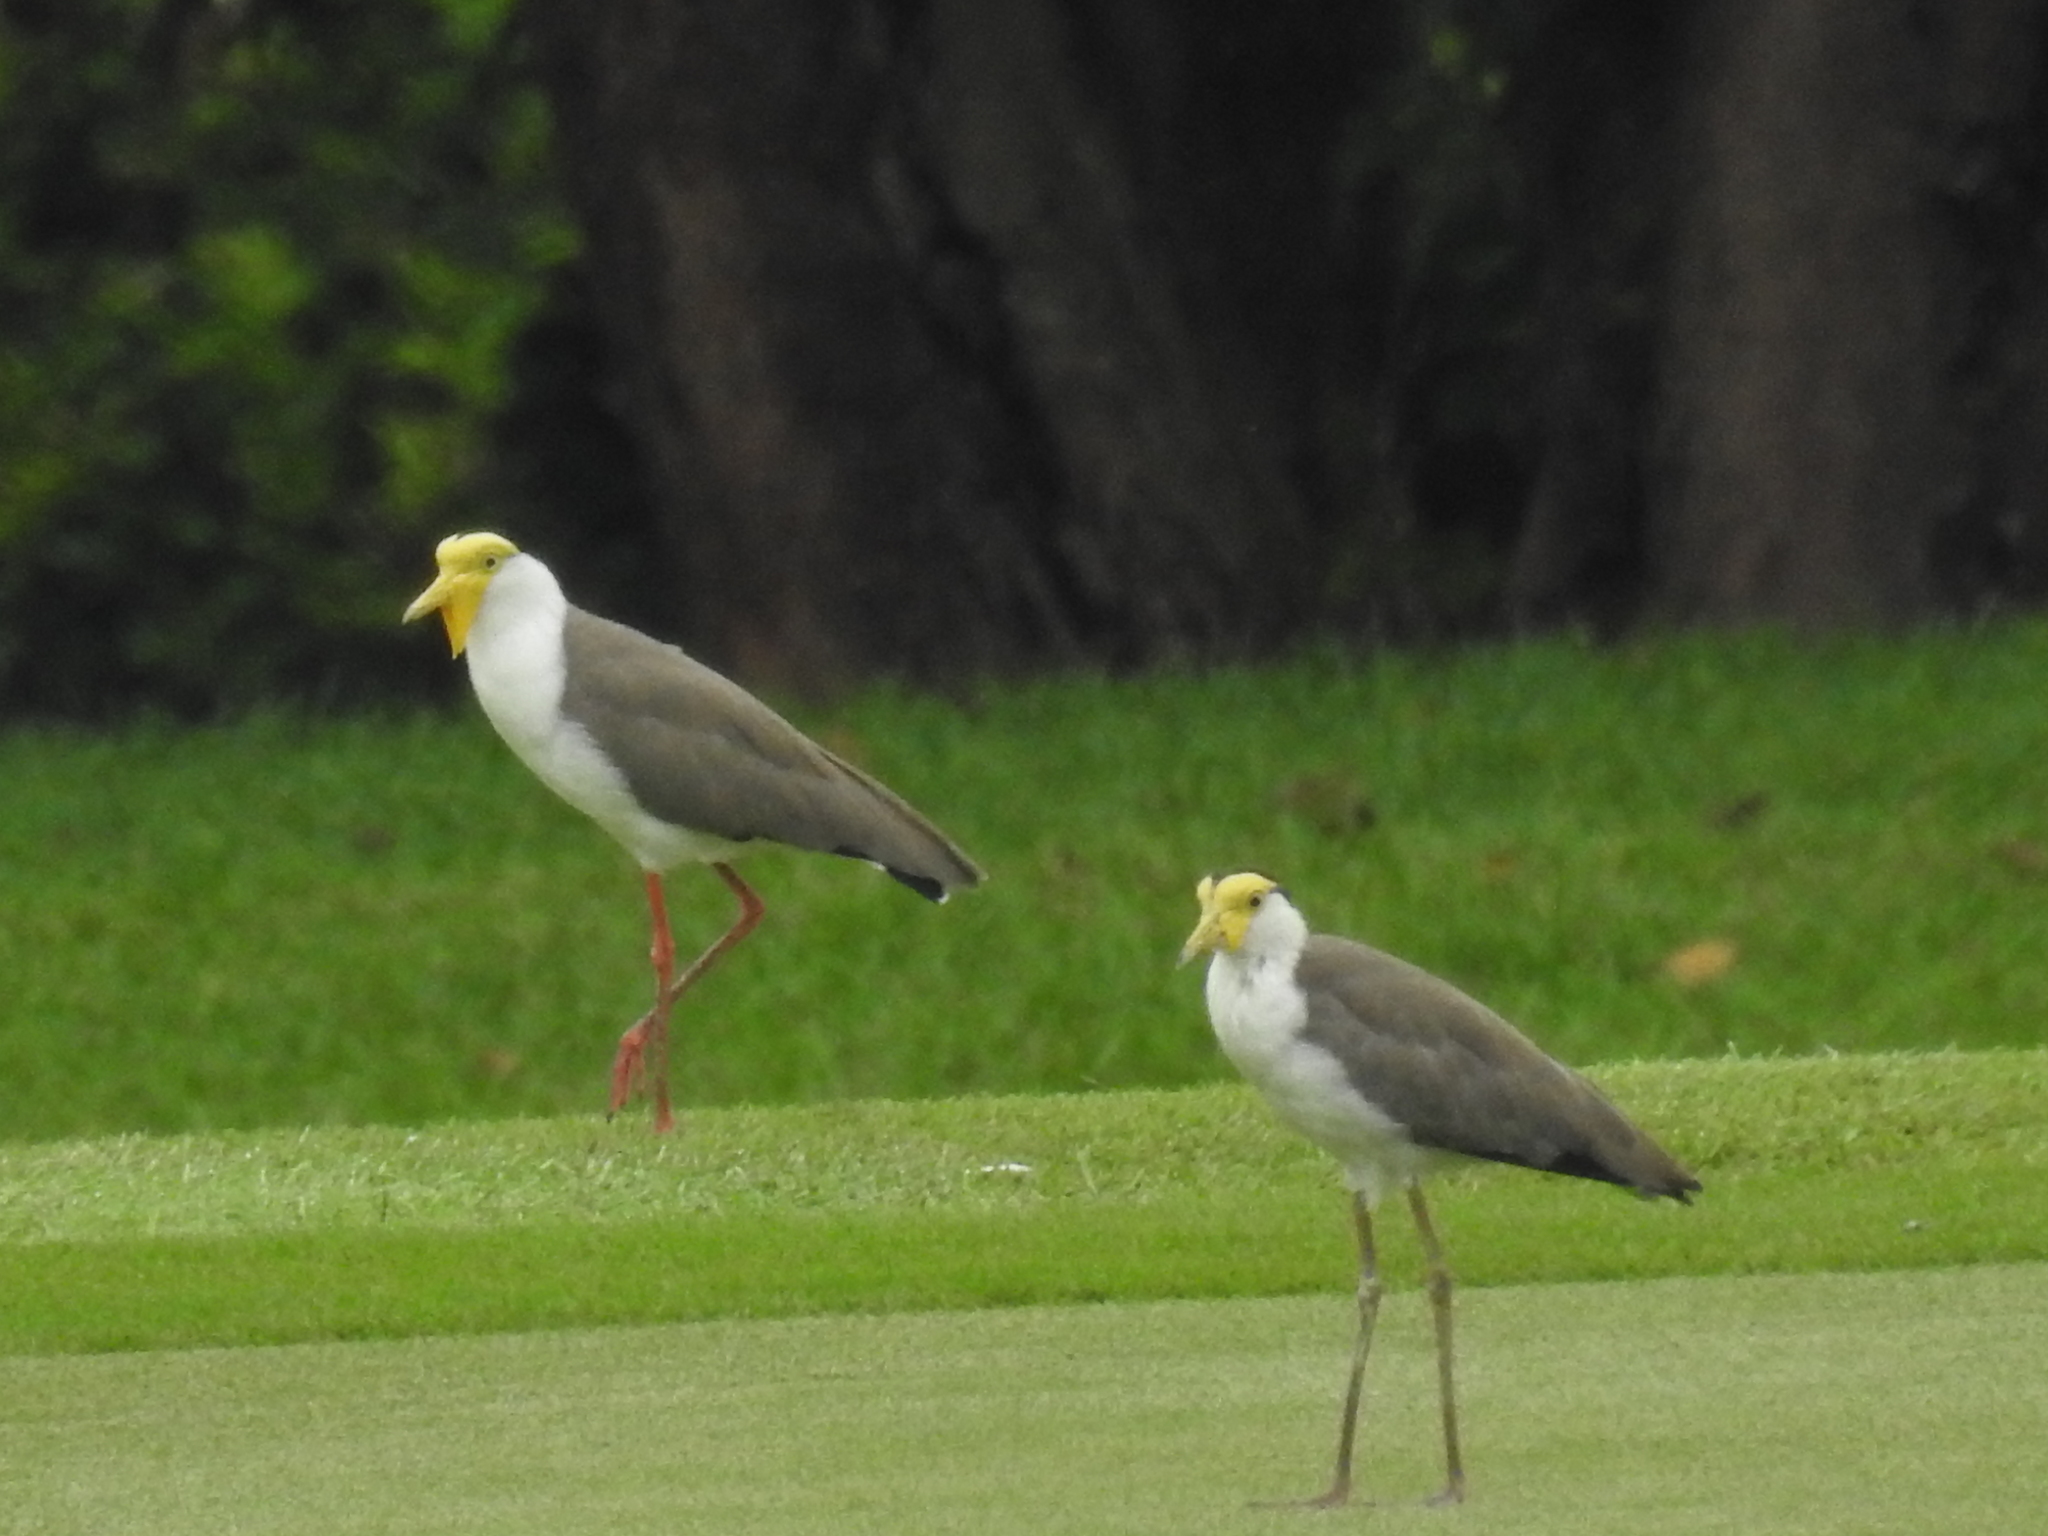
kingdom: Animalia
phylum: Chordata
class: Aves
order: Charadriiformes
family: Charadriidae
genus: Vanellus
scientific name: Vanellus miles
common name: Masked lapwing
